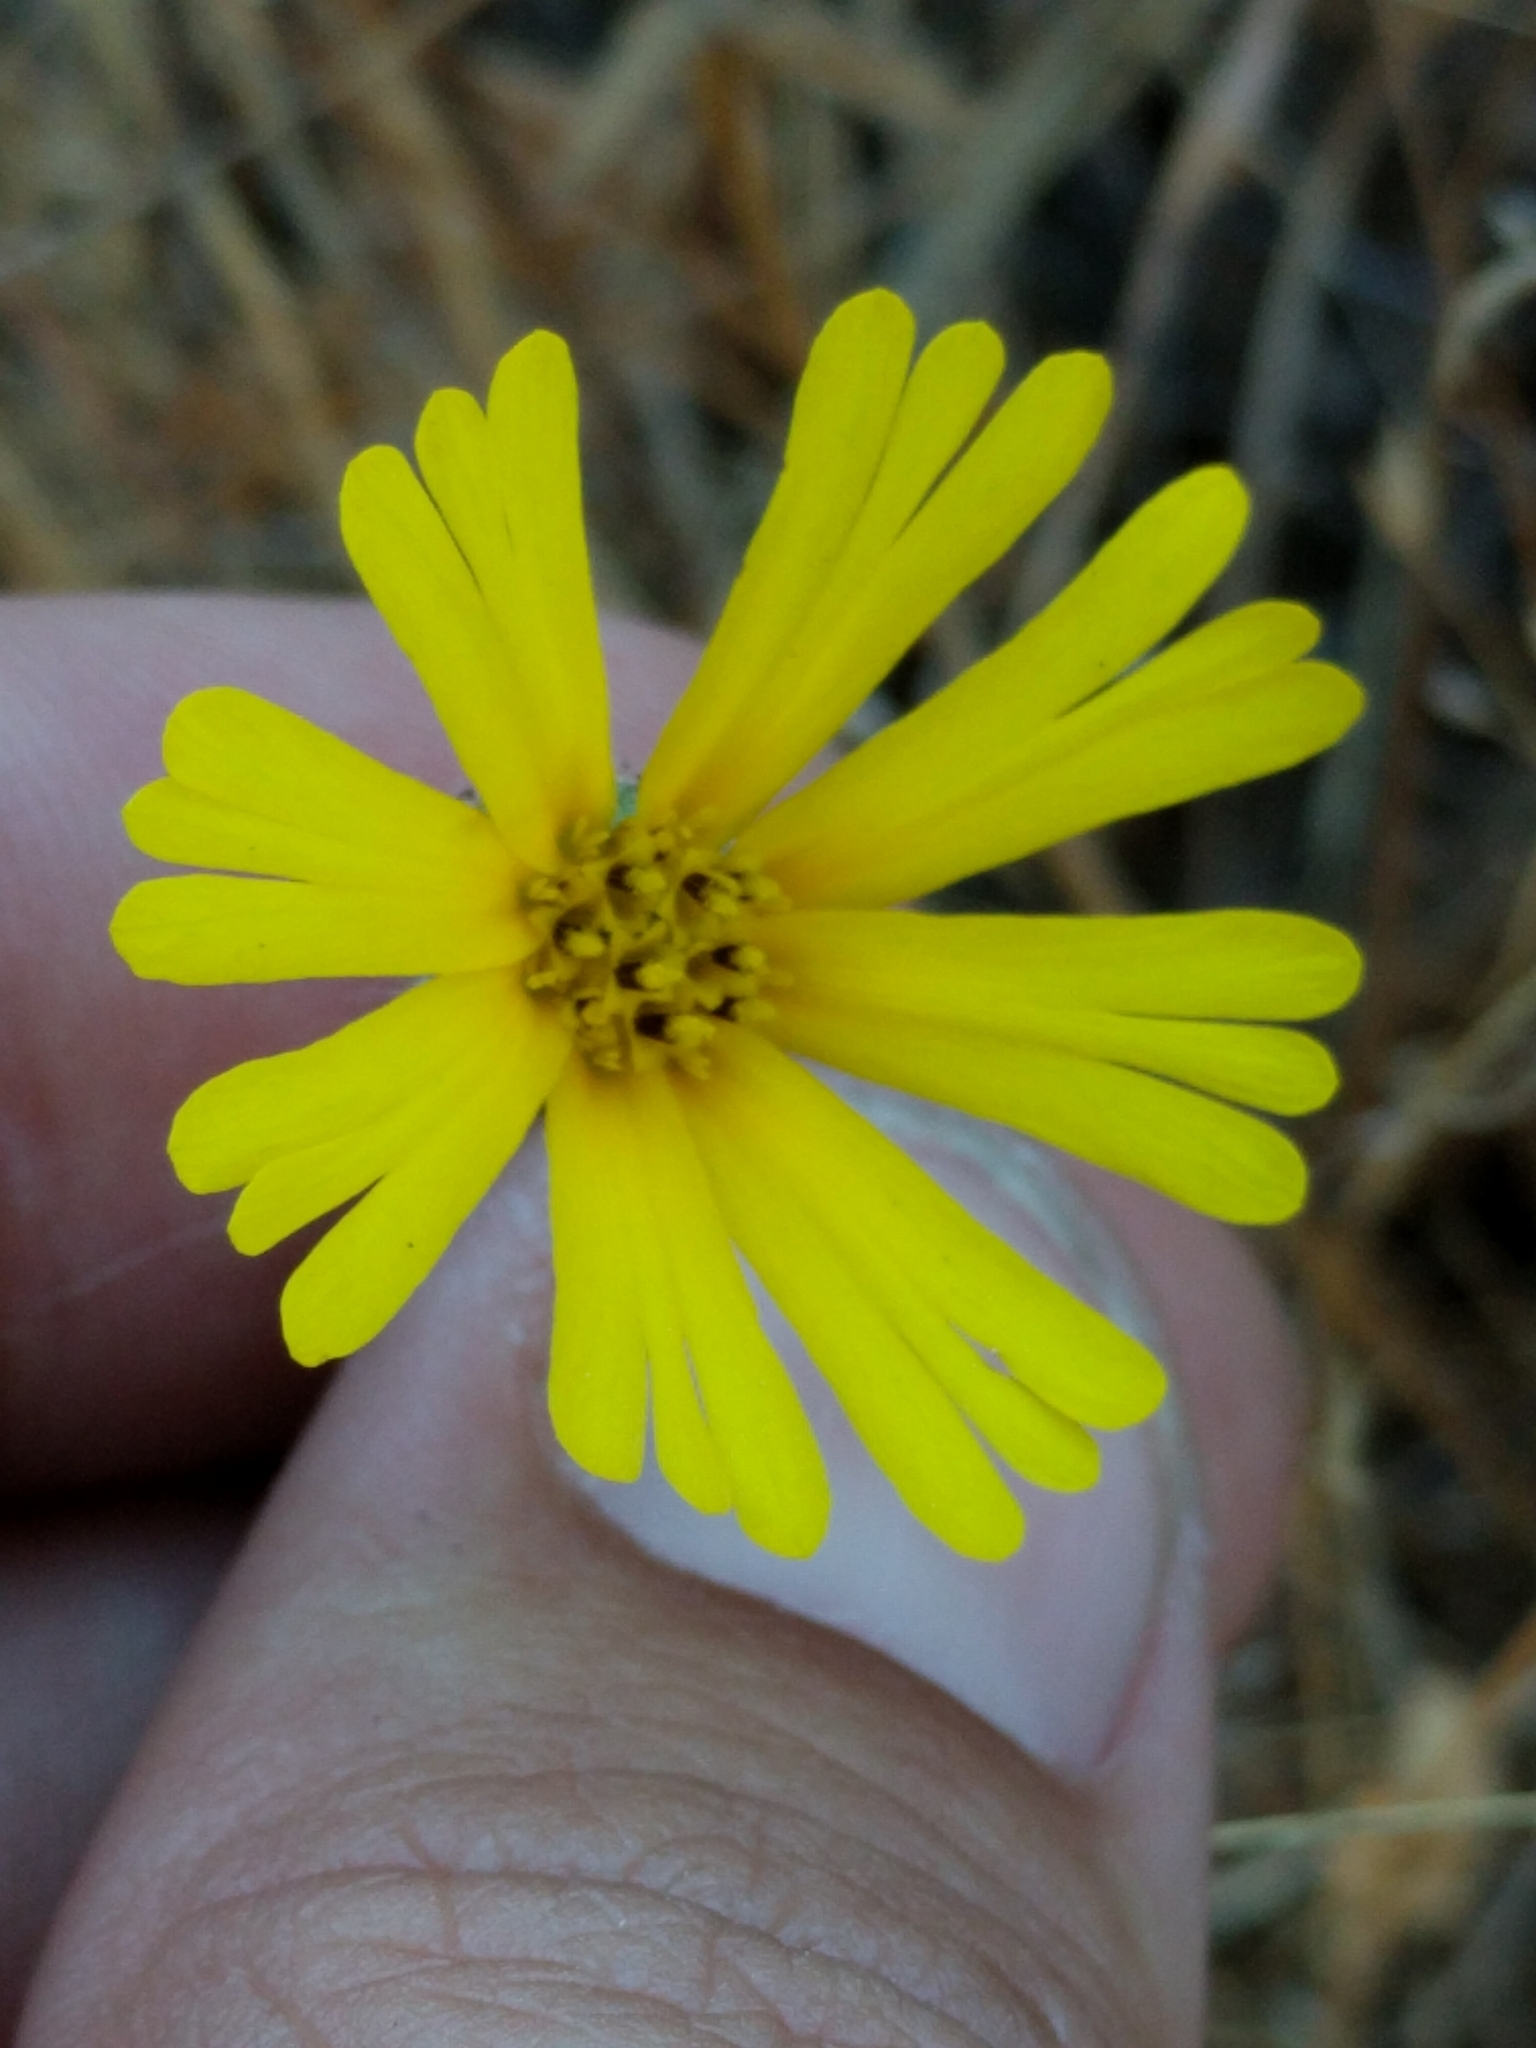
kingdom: Plantae
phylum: Tracheophyta
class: Magnoliopsida
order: Asterales
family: Asteraceae
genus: Madia
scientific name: Madia elegans
